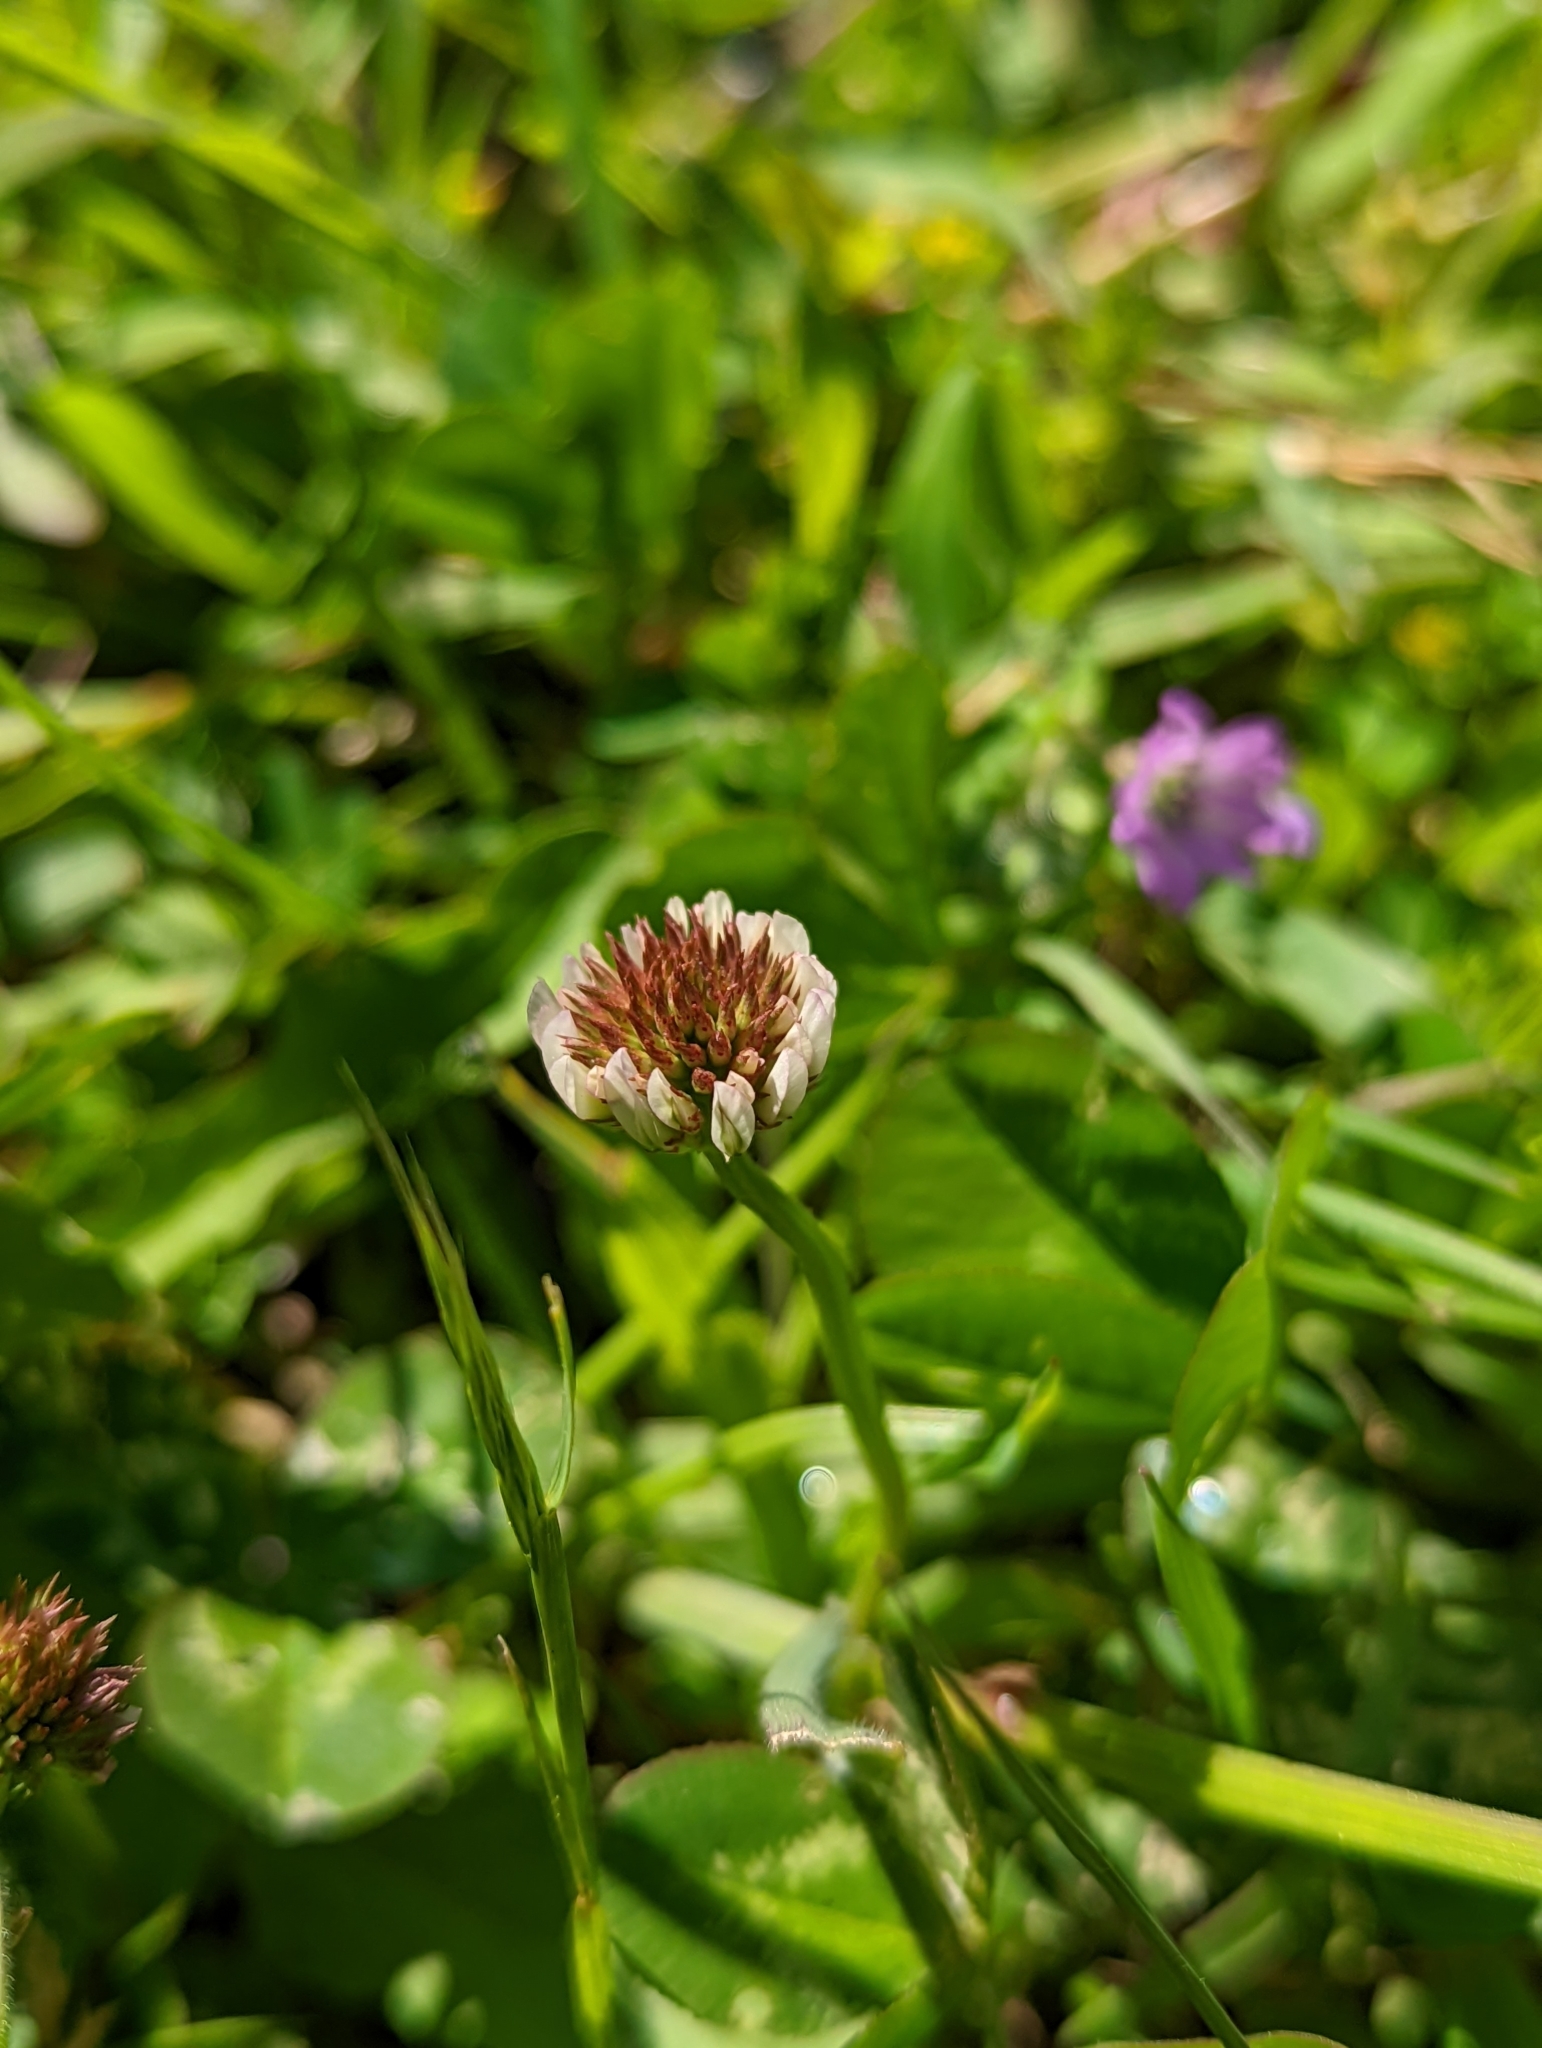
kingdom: Plantae
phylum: Tracheophyta
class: Magnoliopsida
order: Fabales
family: Fabaceae
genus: Trifolium
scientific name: Trifolium repens
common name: White clover
